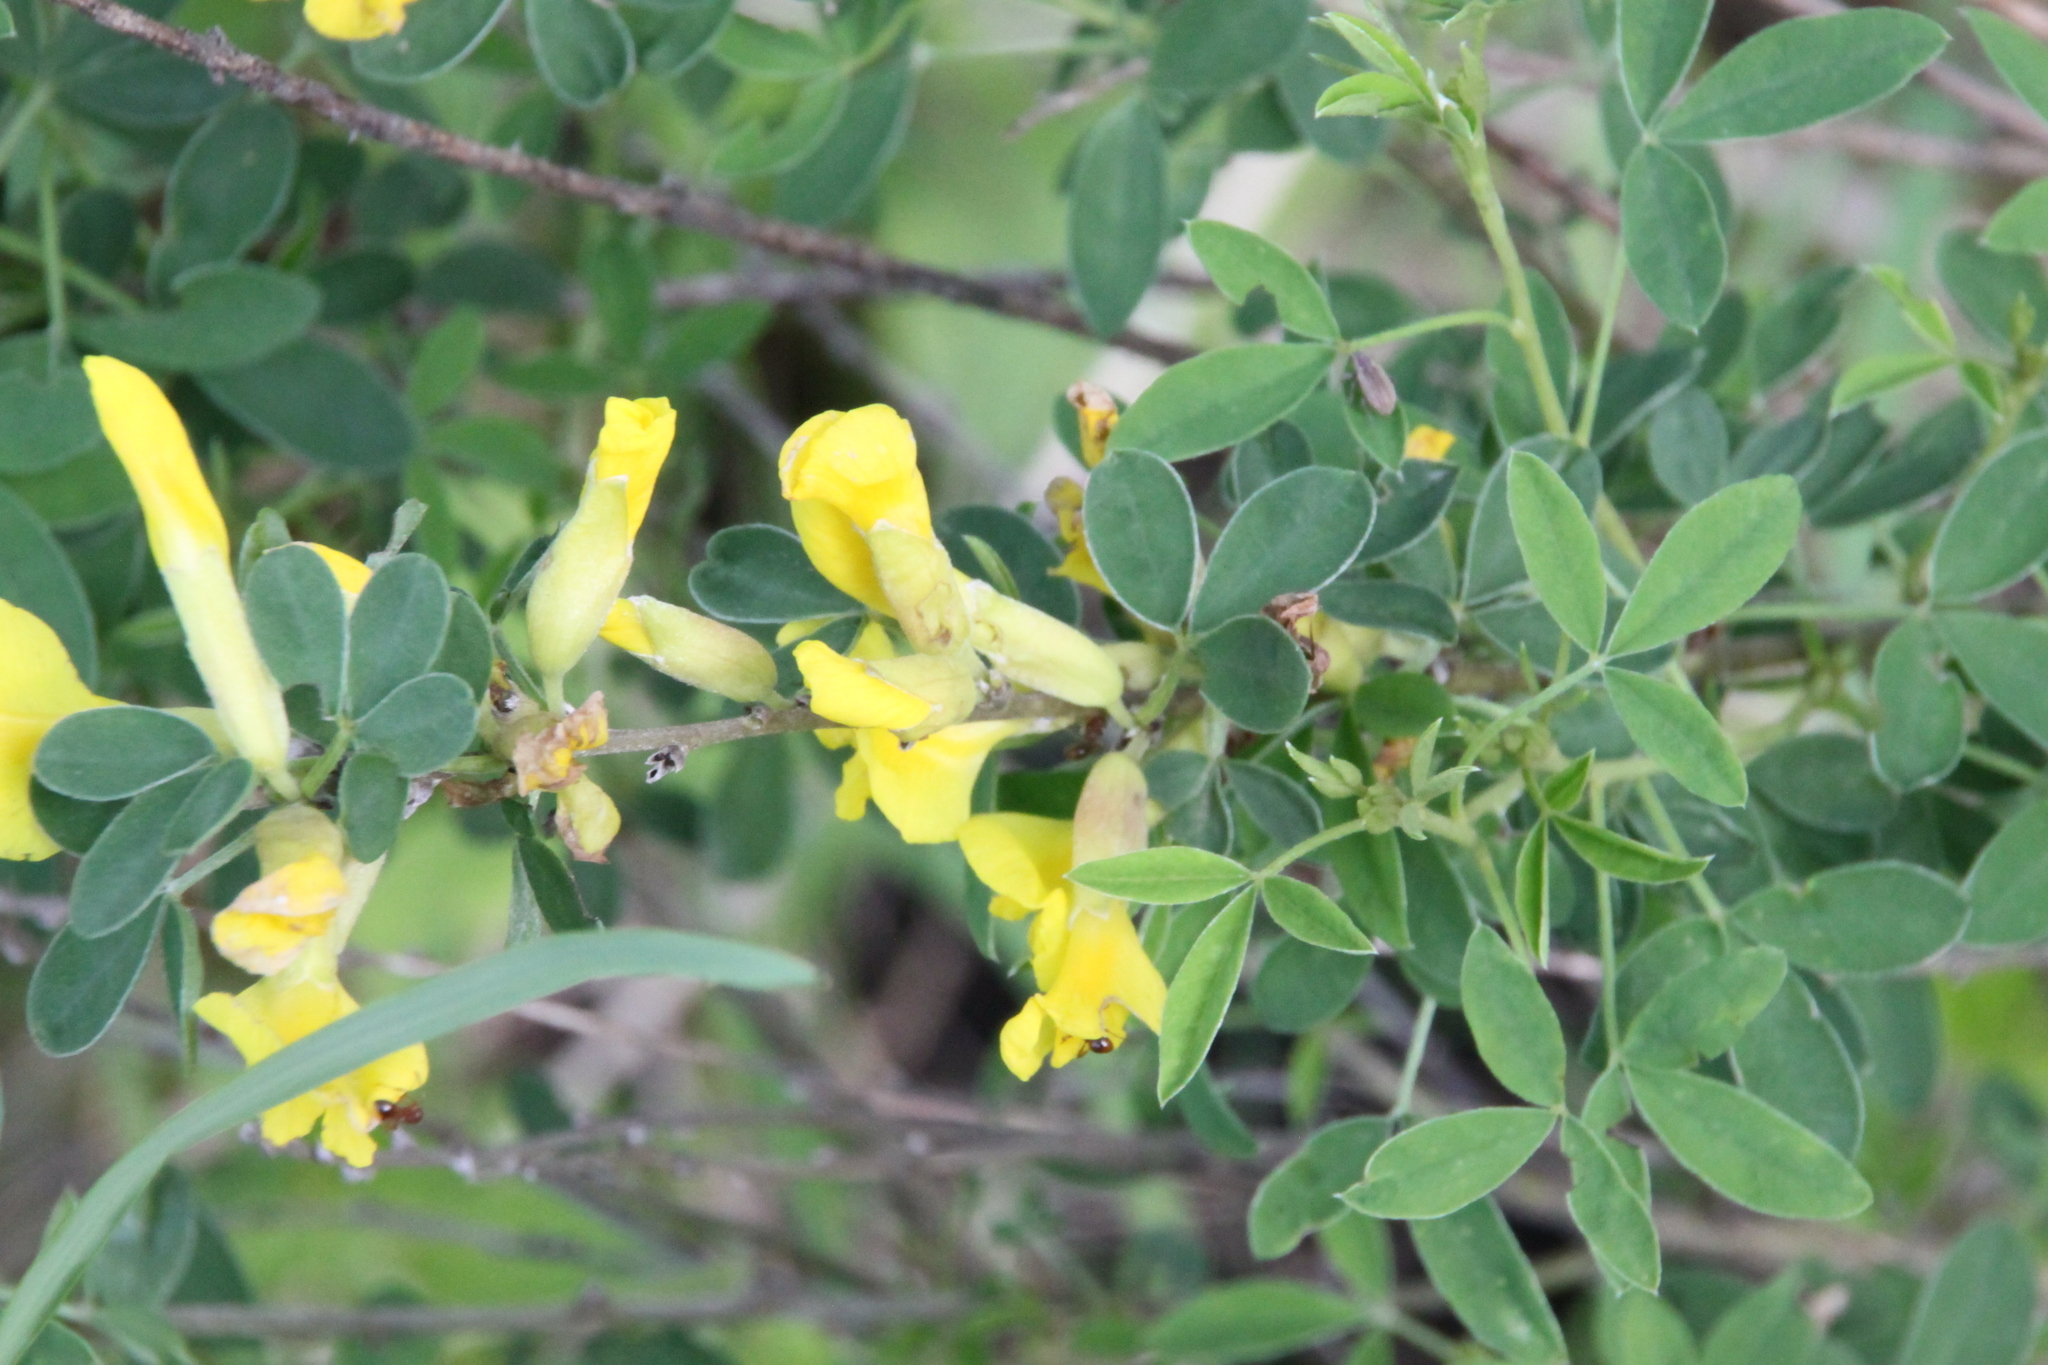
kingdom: Plantae
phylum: Tracheophyta
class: Magnoliopsida
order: Fabales
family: Fabaceae
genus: Chamaecytisus
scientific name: Chamaecytisus ruthenicus
